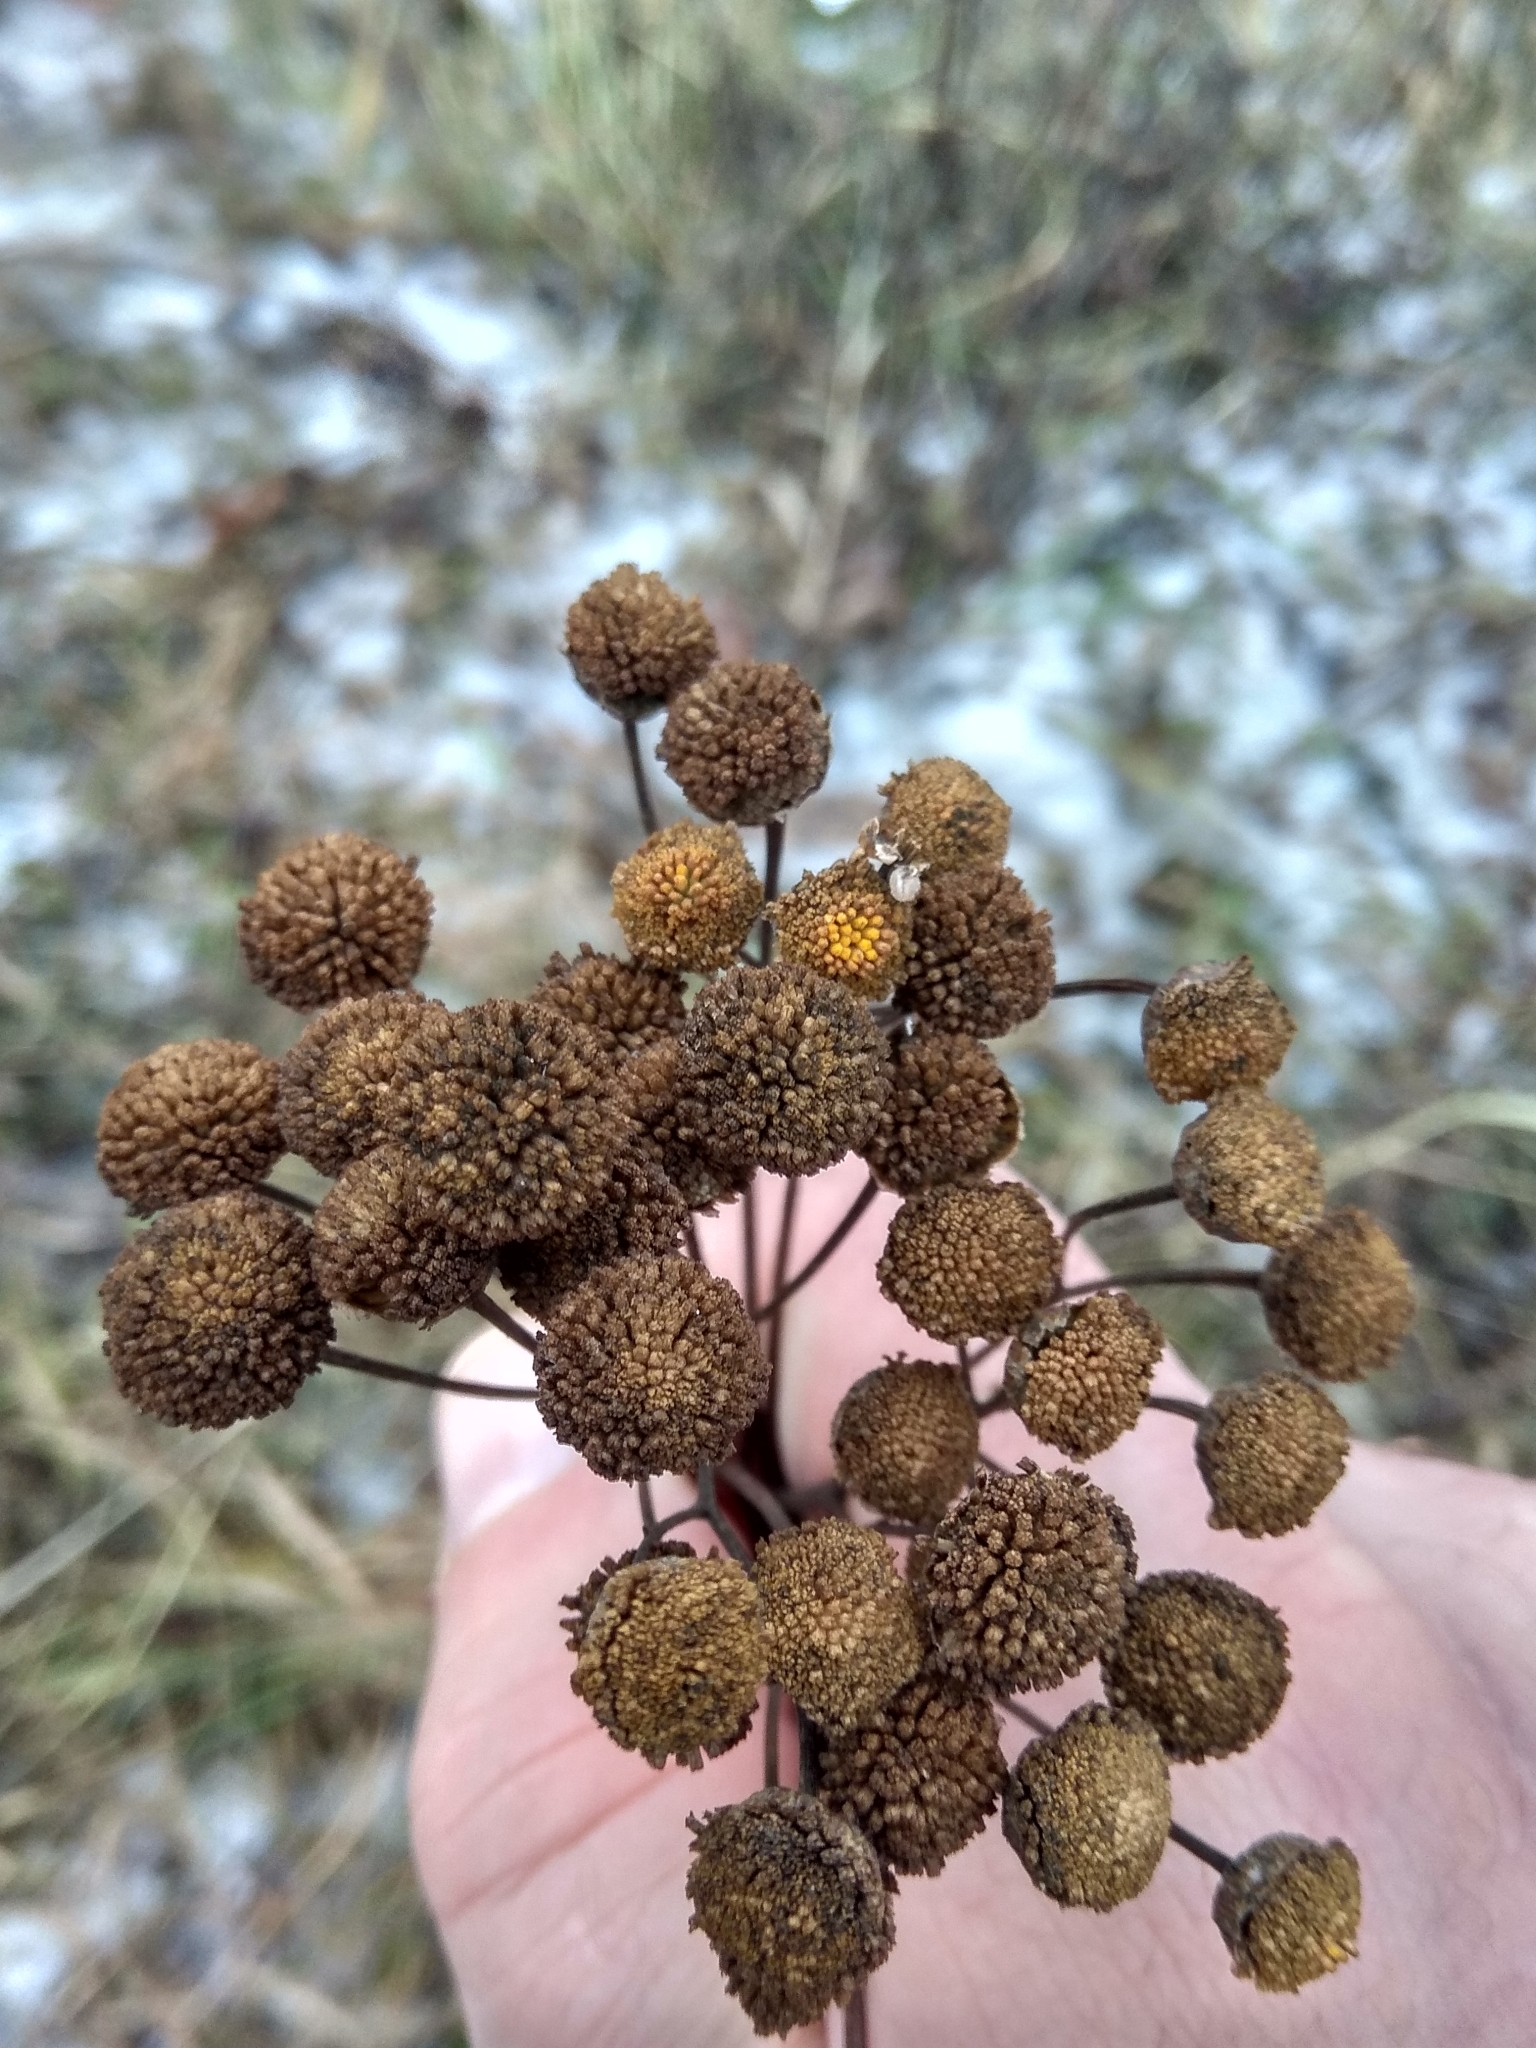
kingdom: Plantae
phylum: Tracheophyta
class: Magnoliopsida
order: Asterales
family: Asteraceae
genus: Tanacetum
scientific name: Tanacetum vulgare
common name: Common tansy
